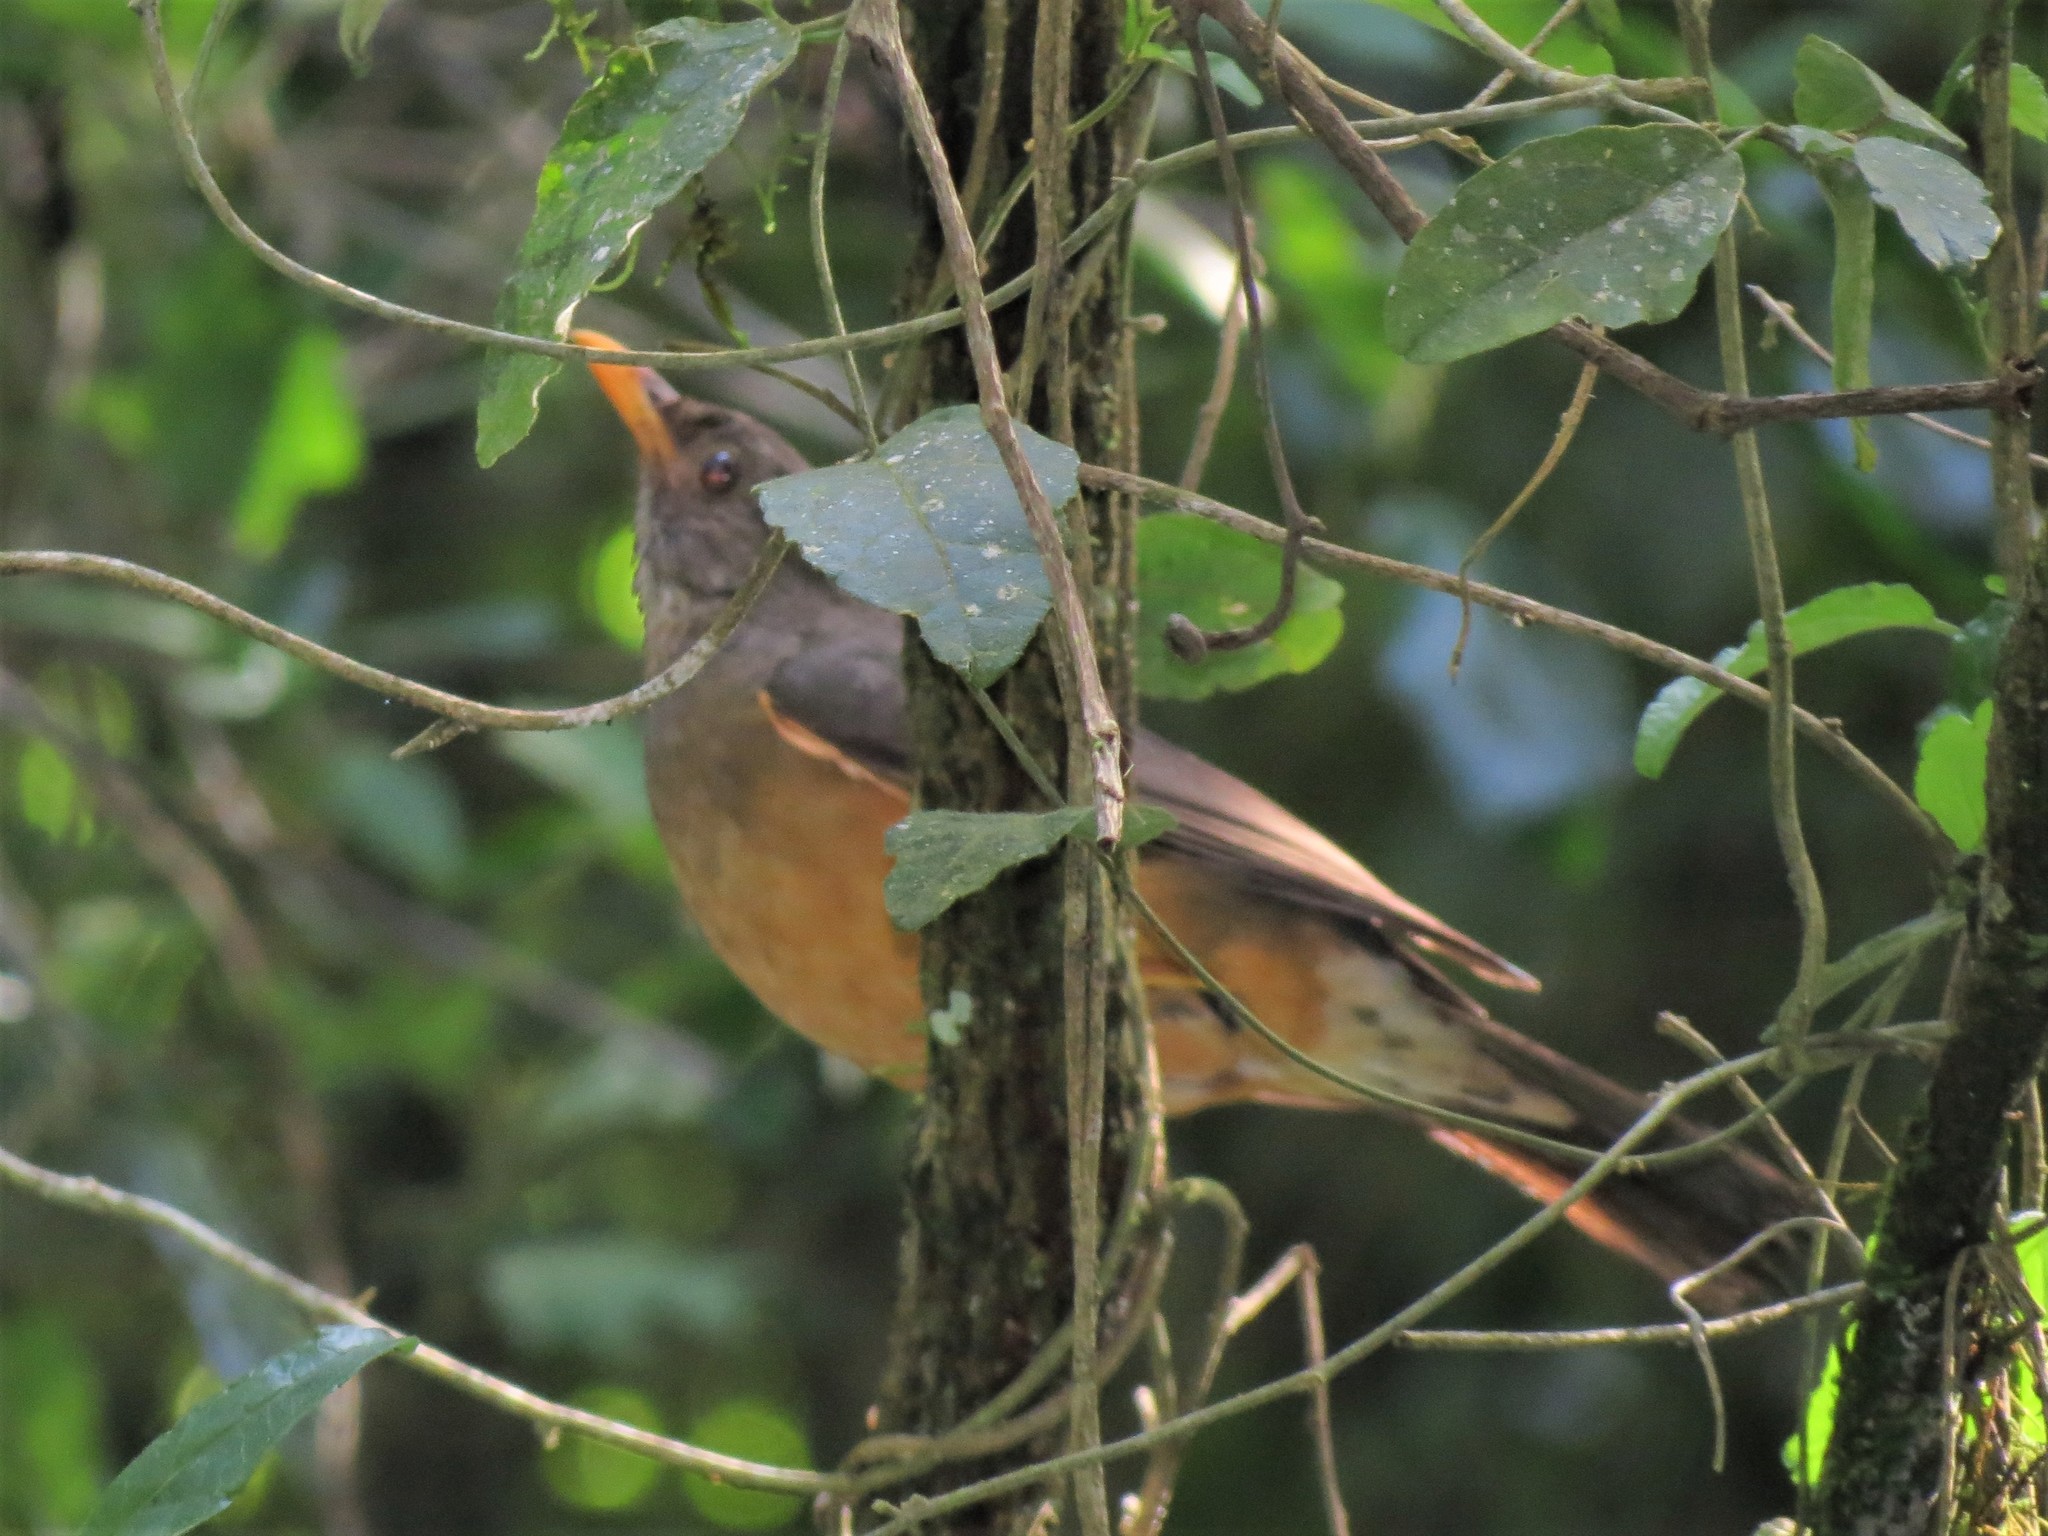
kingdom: Animalia
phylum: Chordata
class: Aves
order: Passeriformes
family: Turdidae
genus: Turdus
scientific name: Turdus olivaceus
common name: Olive thrush
